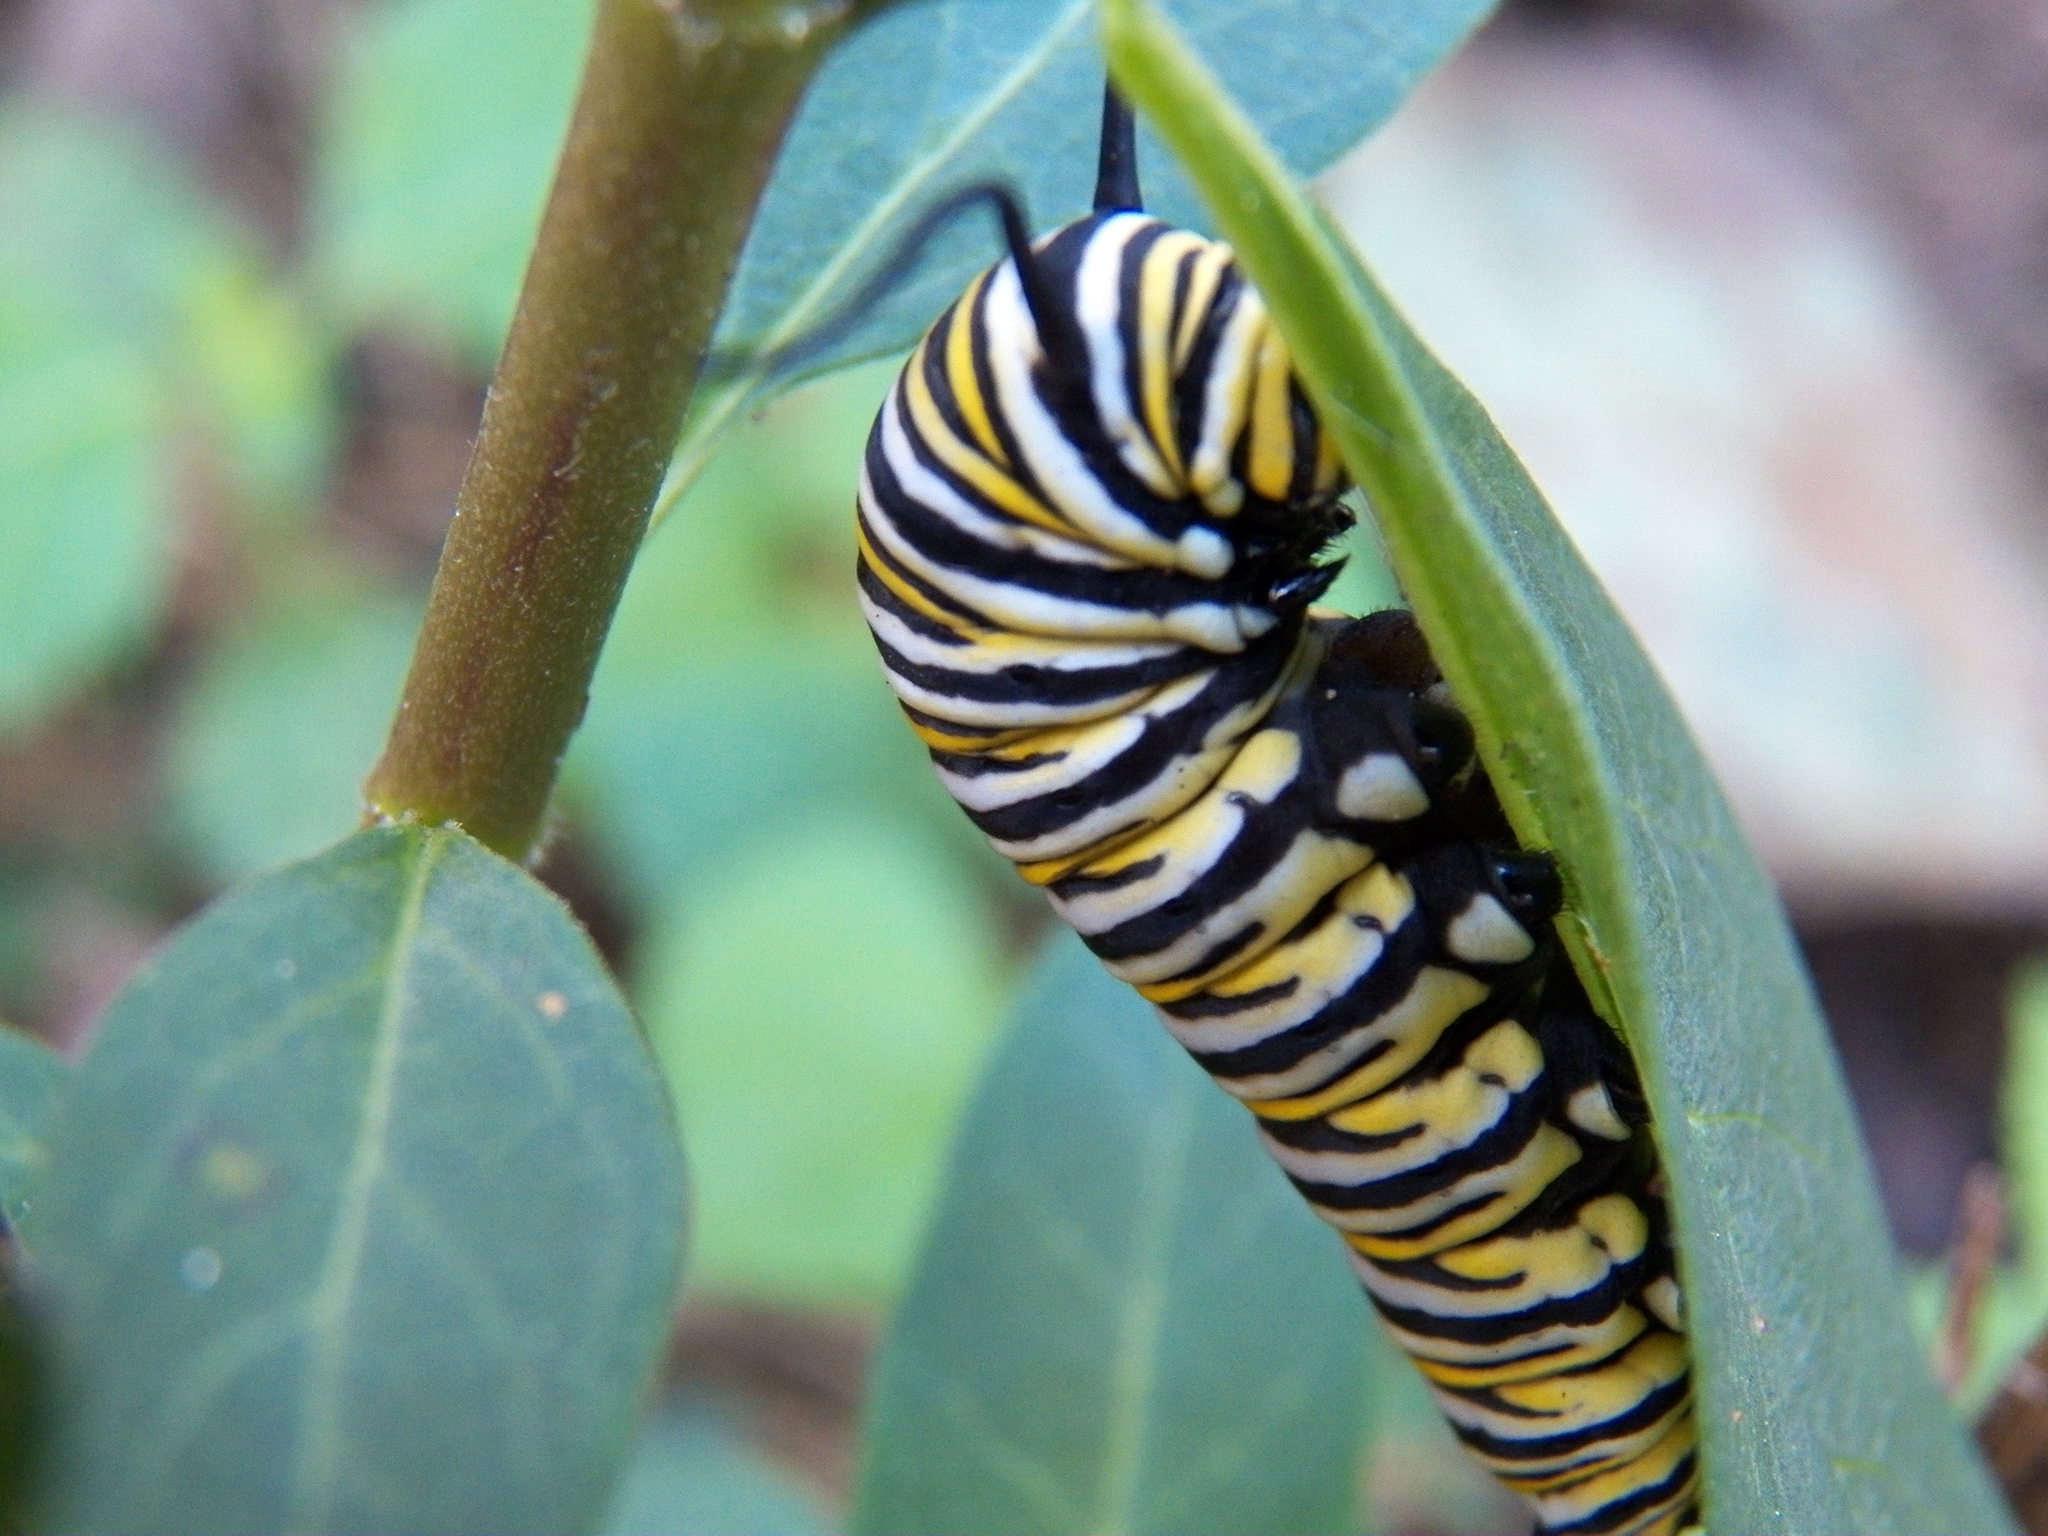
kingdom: Animalia
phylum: Arthropoda
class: Insecta
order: Lepidoptera
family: Nymphalidae
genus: Danaus
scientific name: Danaus plexippus
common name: Monarch
